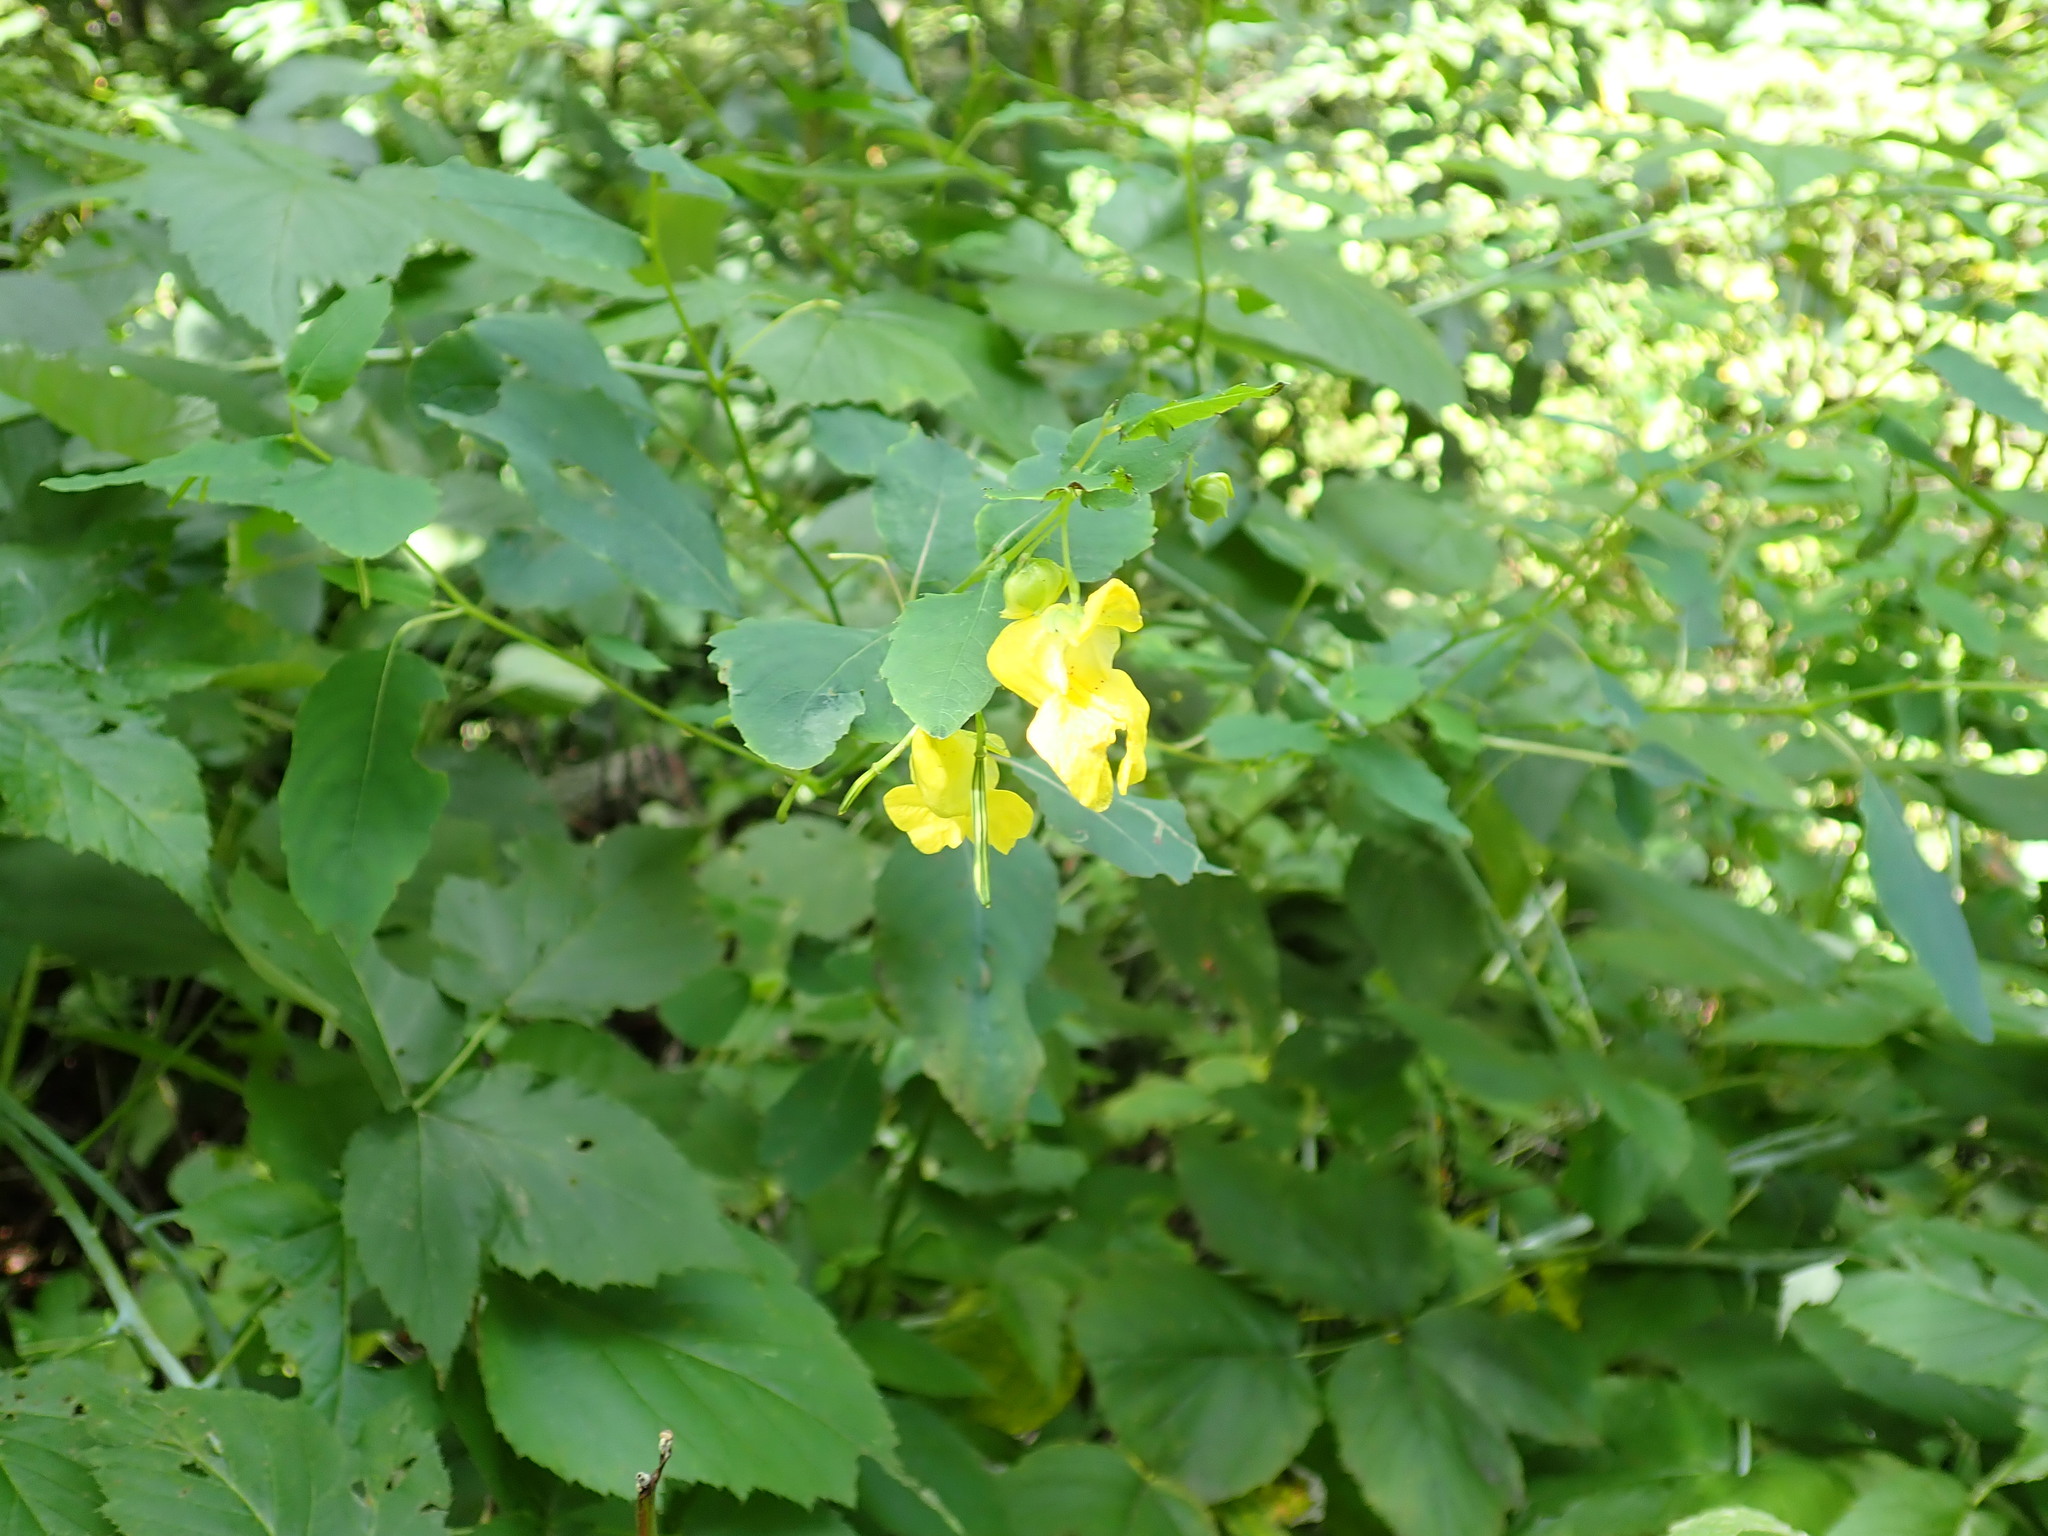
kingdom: Plantae
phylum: Tracheophyta
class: Magnoliopsida
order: Ericales
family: Balsaminaceae
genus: Impatiens
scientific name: Impatiens pallida
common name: Pale snapweed
